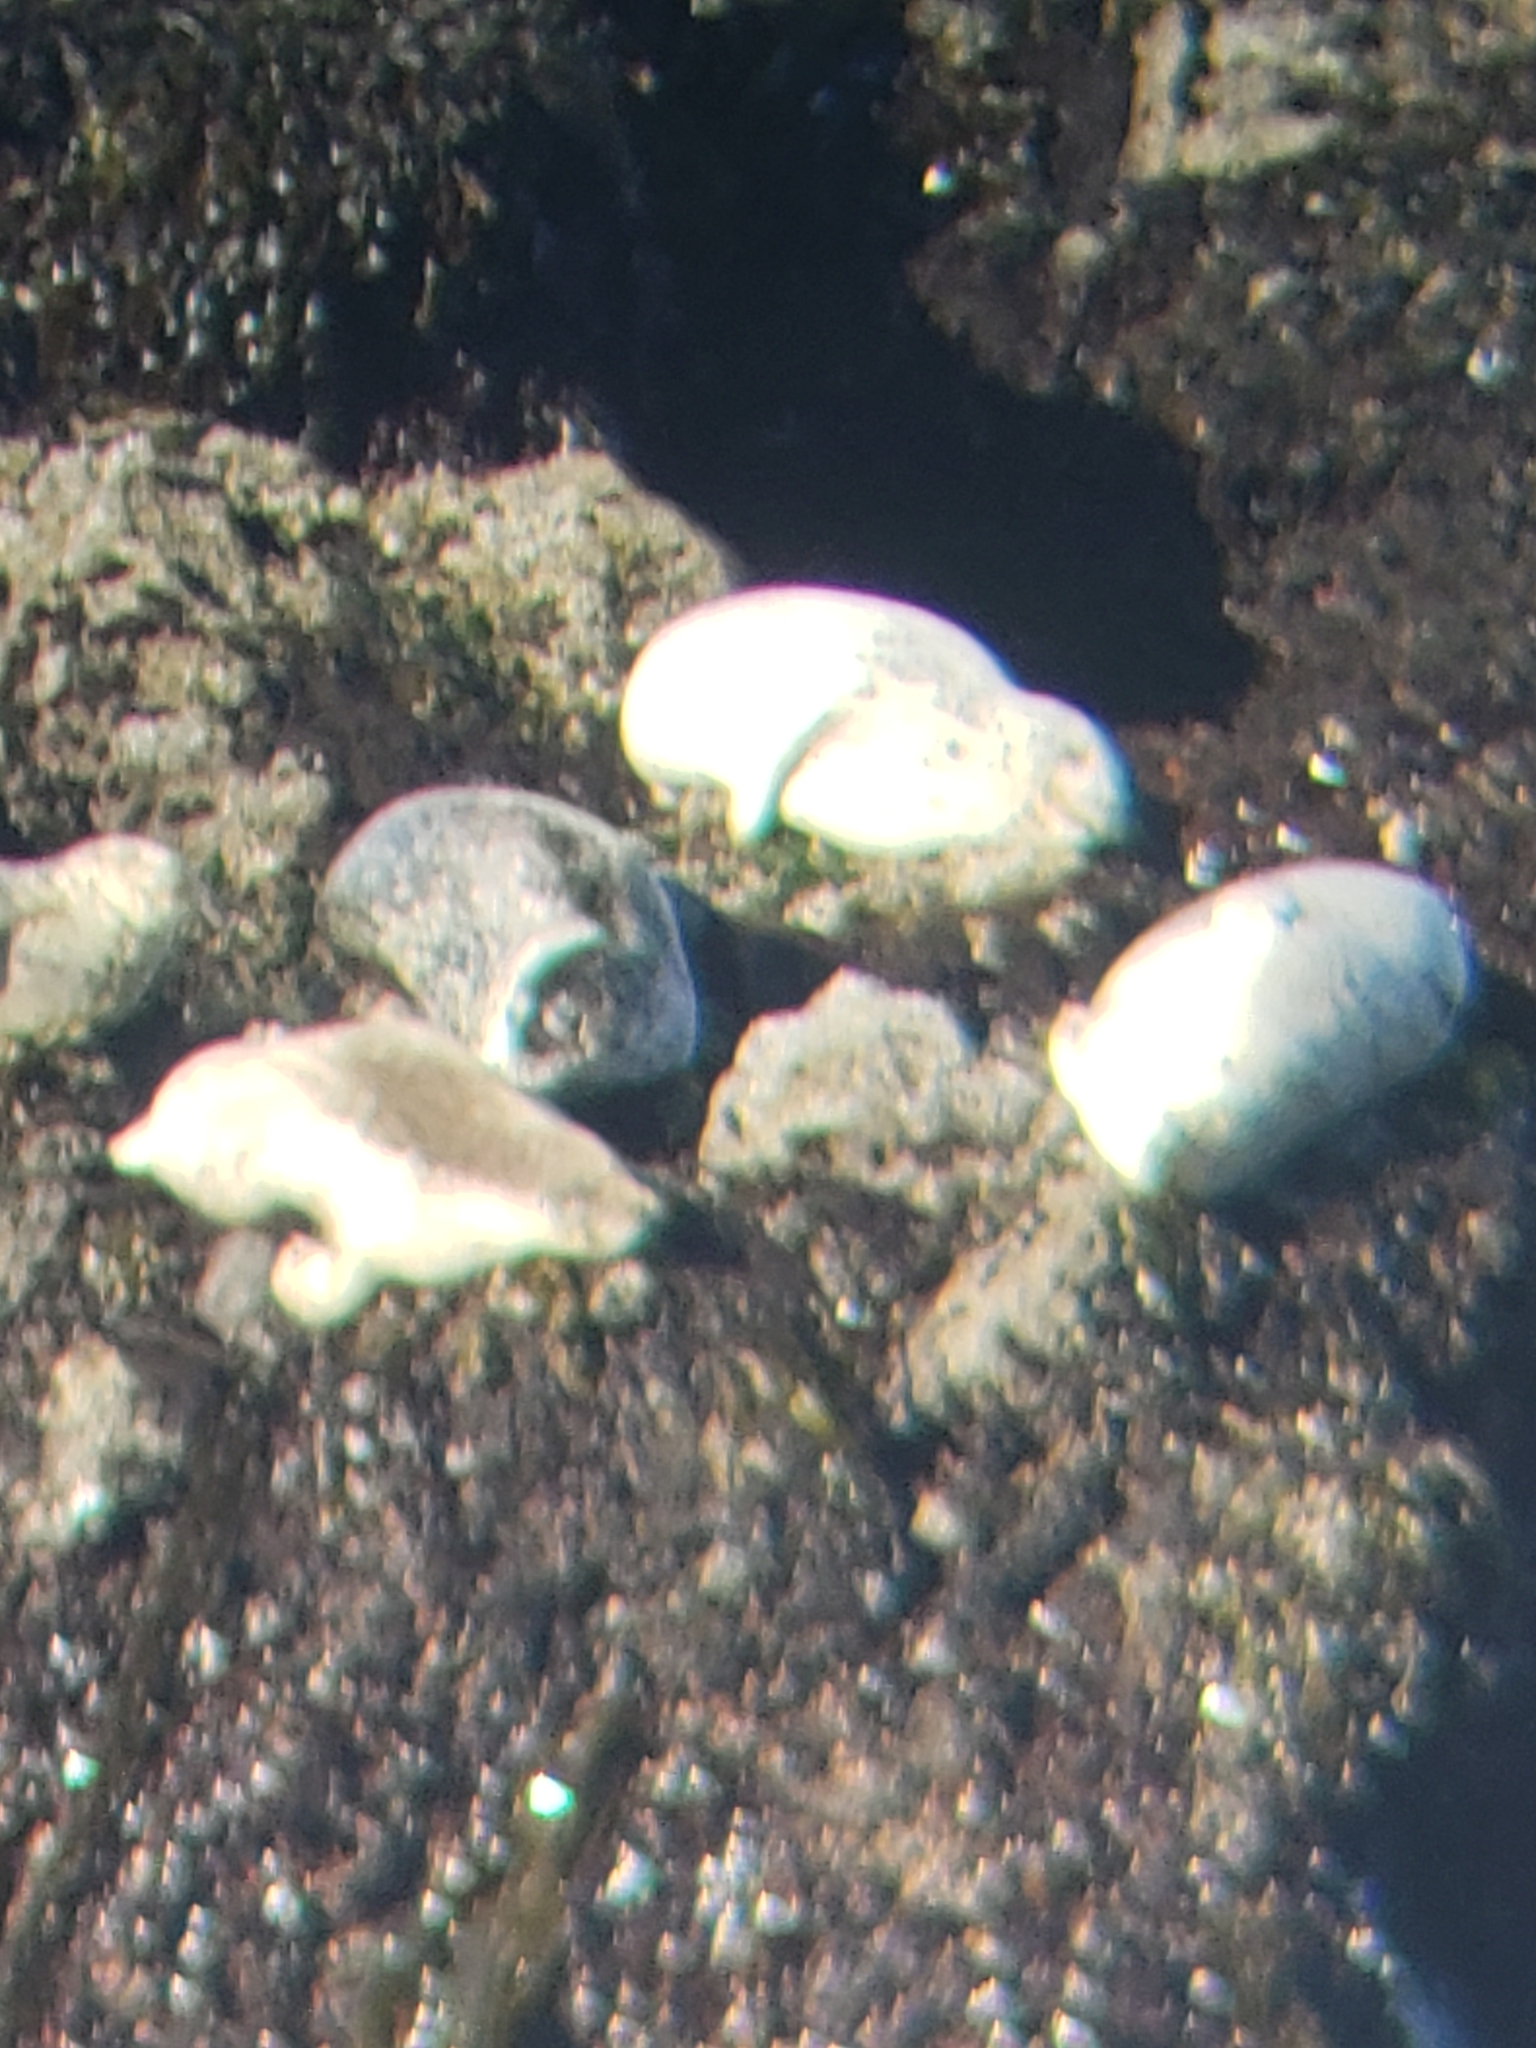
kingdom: Animalia
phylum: Chordata
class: Mammalia
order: Carnivora
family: Phocidae
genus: Phoca
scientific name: Phoca vitulina
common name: Harbor seal
